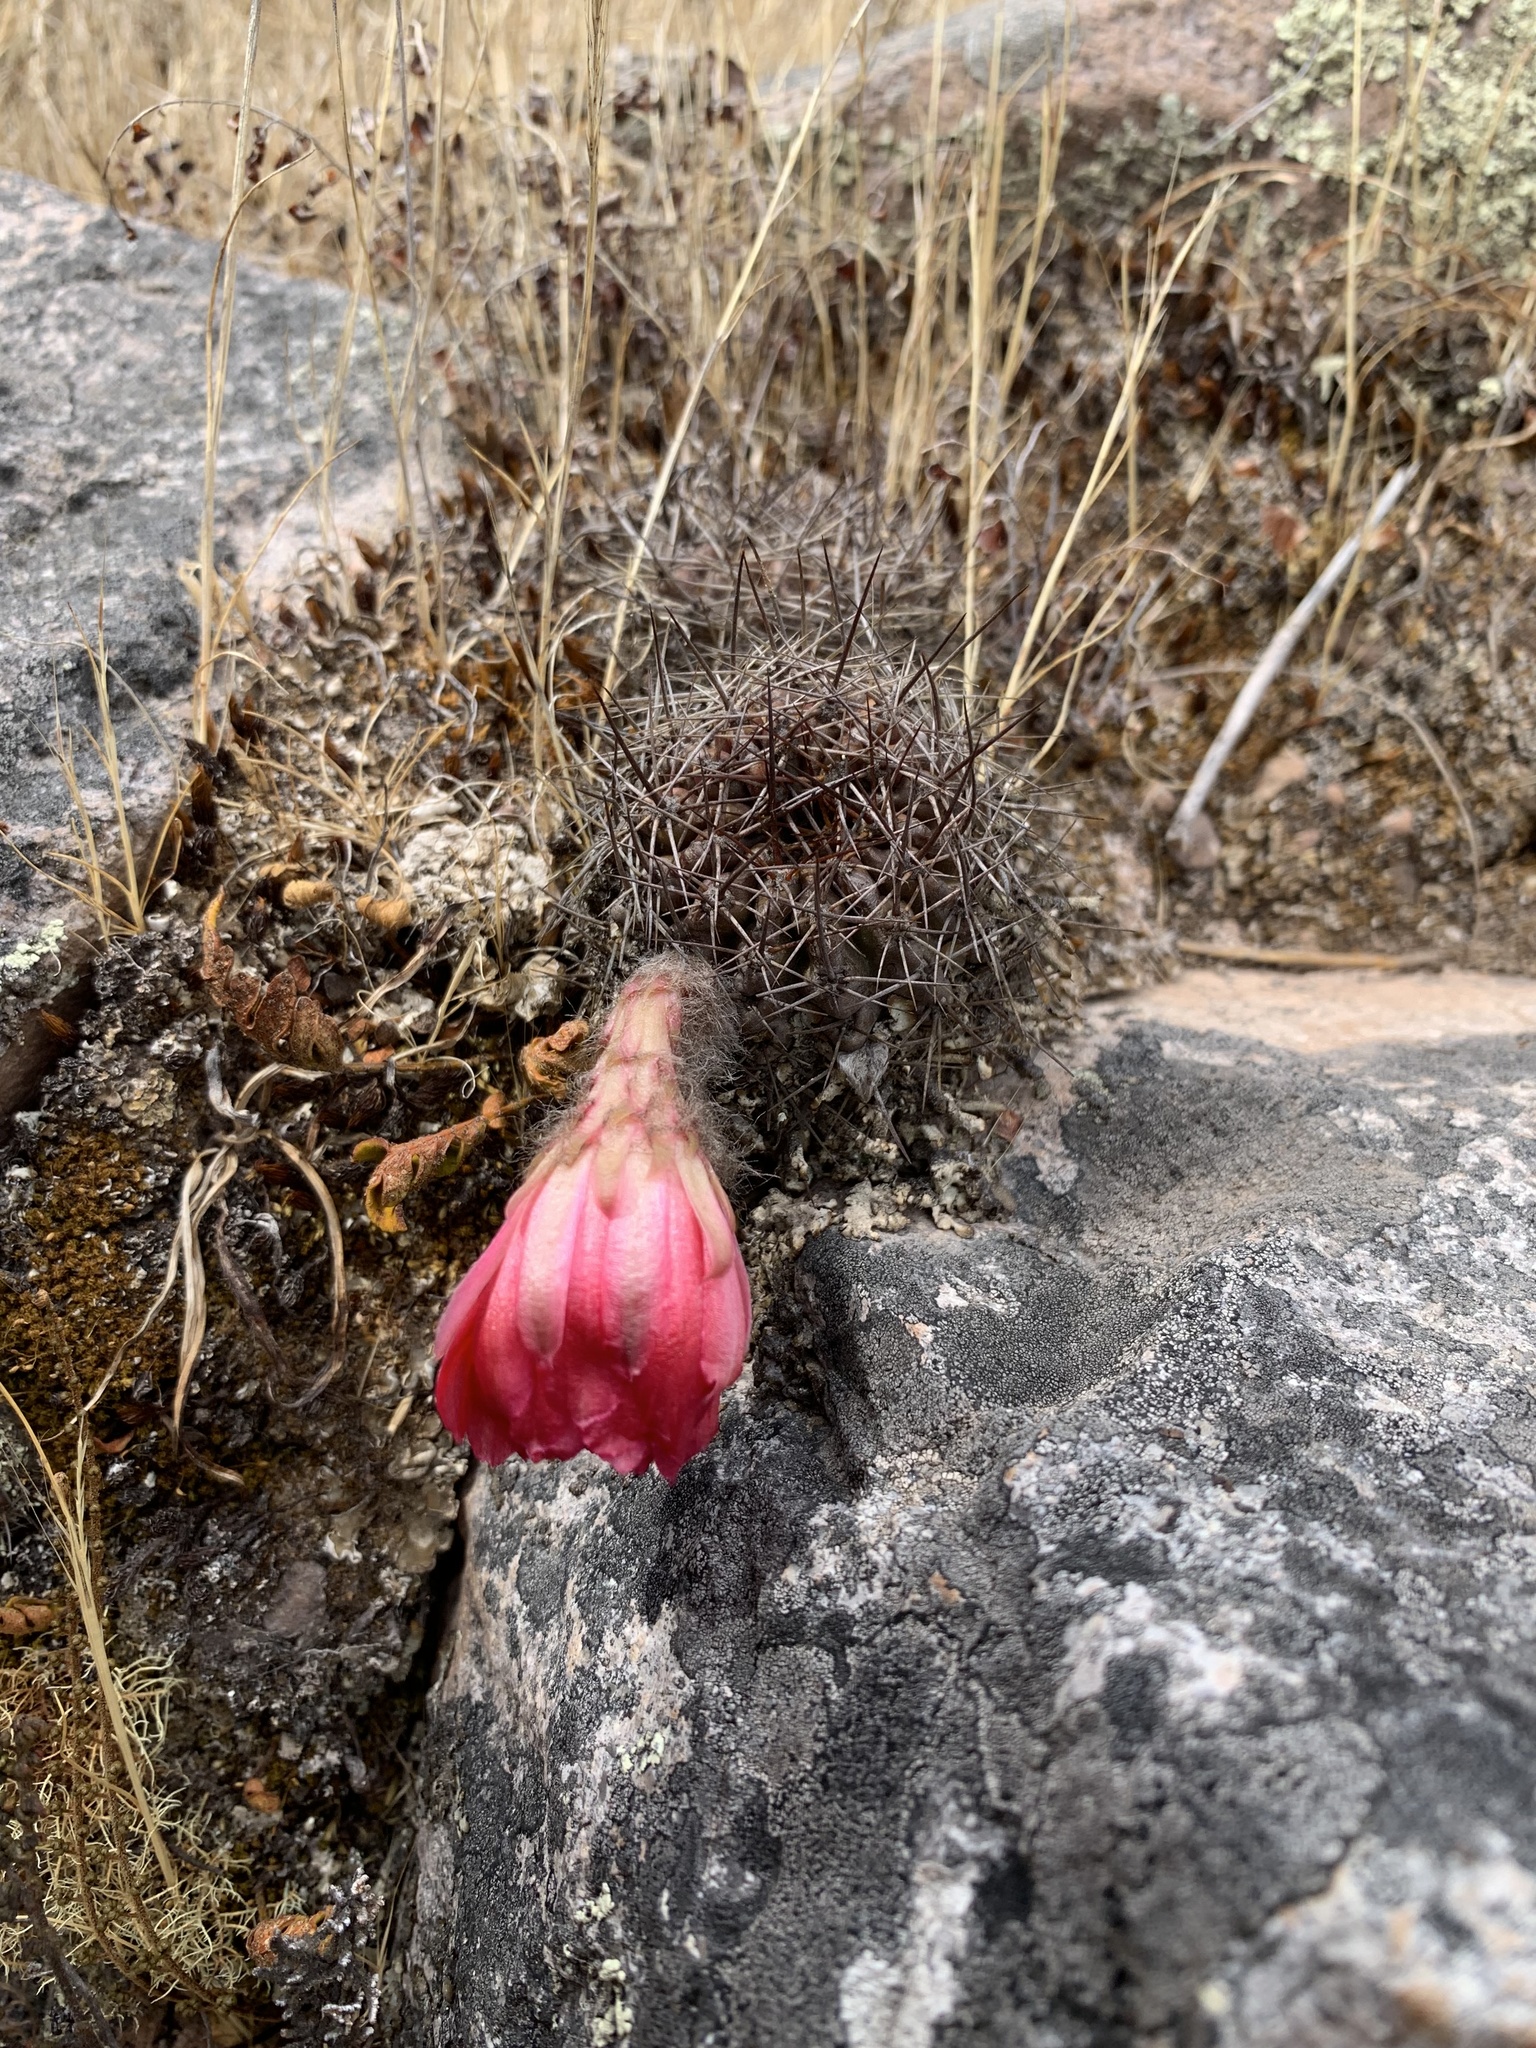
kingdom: Plantae
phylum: Tracheophyta
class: Magnoliopsida
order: Caryophyllales
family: Cactaceae
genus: Lobivia
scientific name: Lobivia hertrichiana
